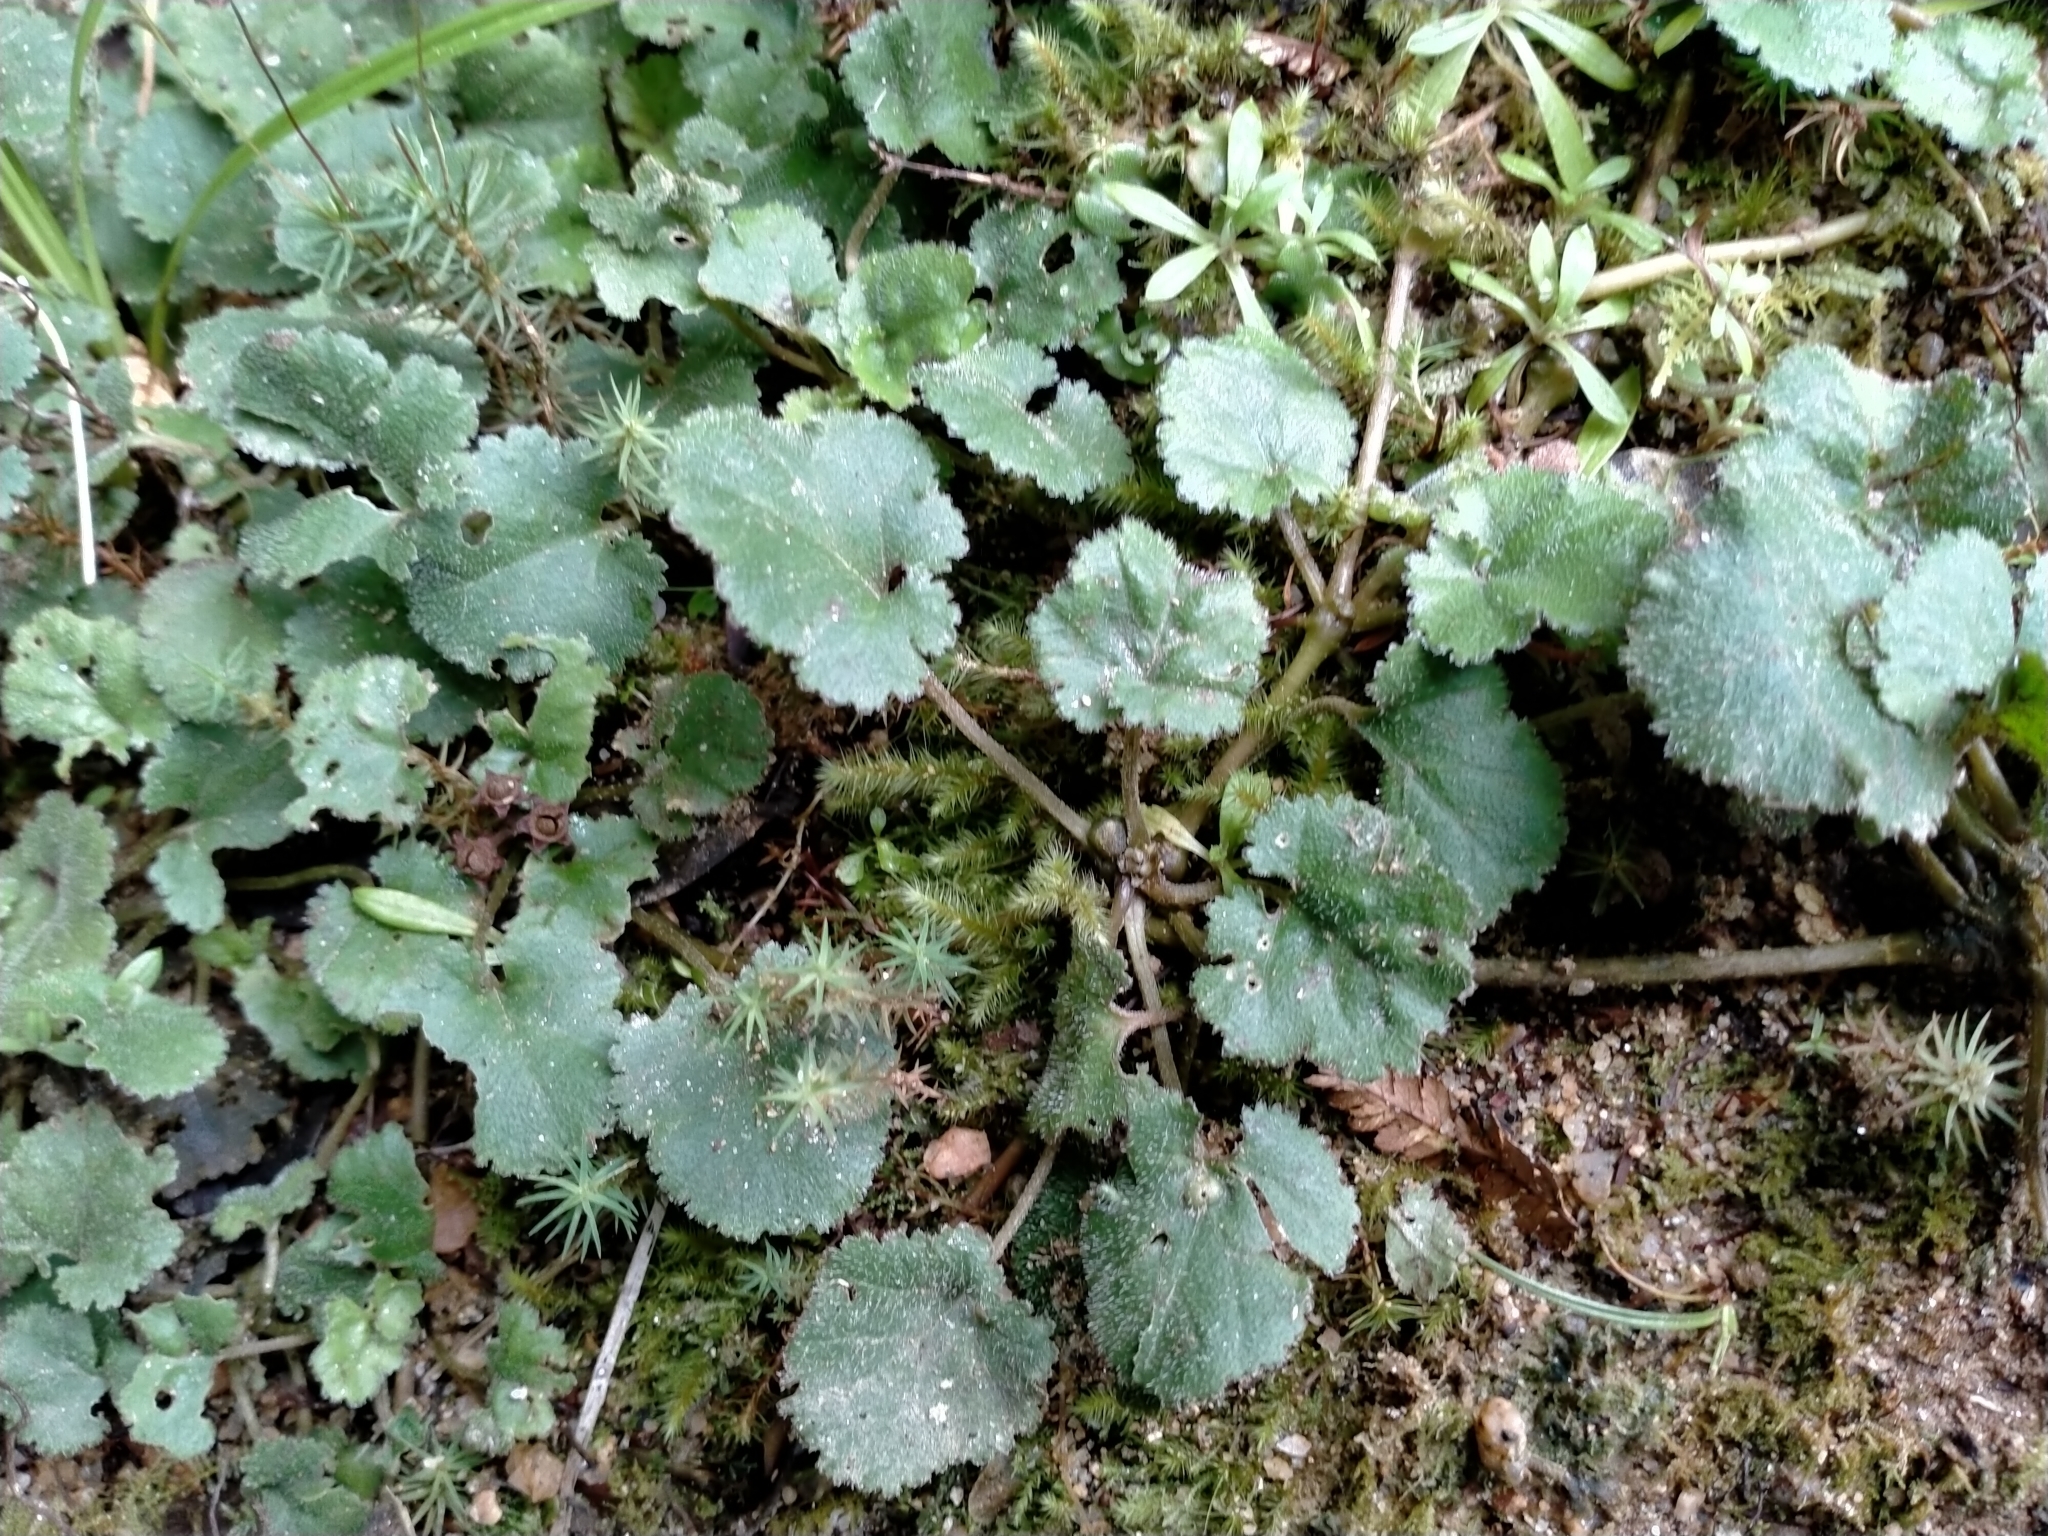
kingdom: Plantae
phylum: Tracheophyta
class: Magnoliopsida
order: Gunnerales
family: Gunneraceae
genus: Gunnera
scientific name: Gunnera monoica
